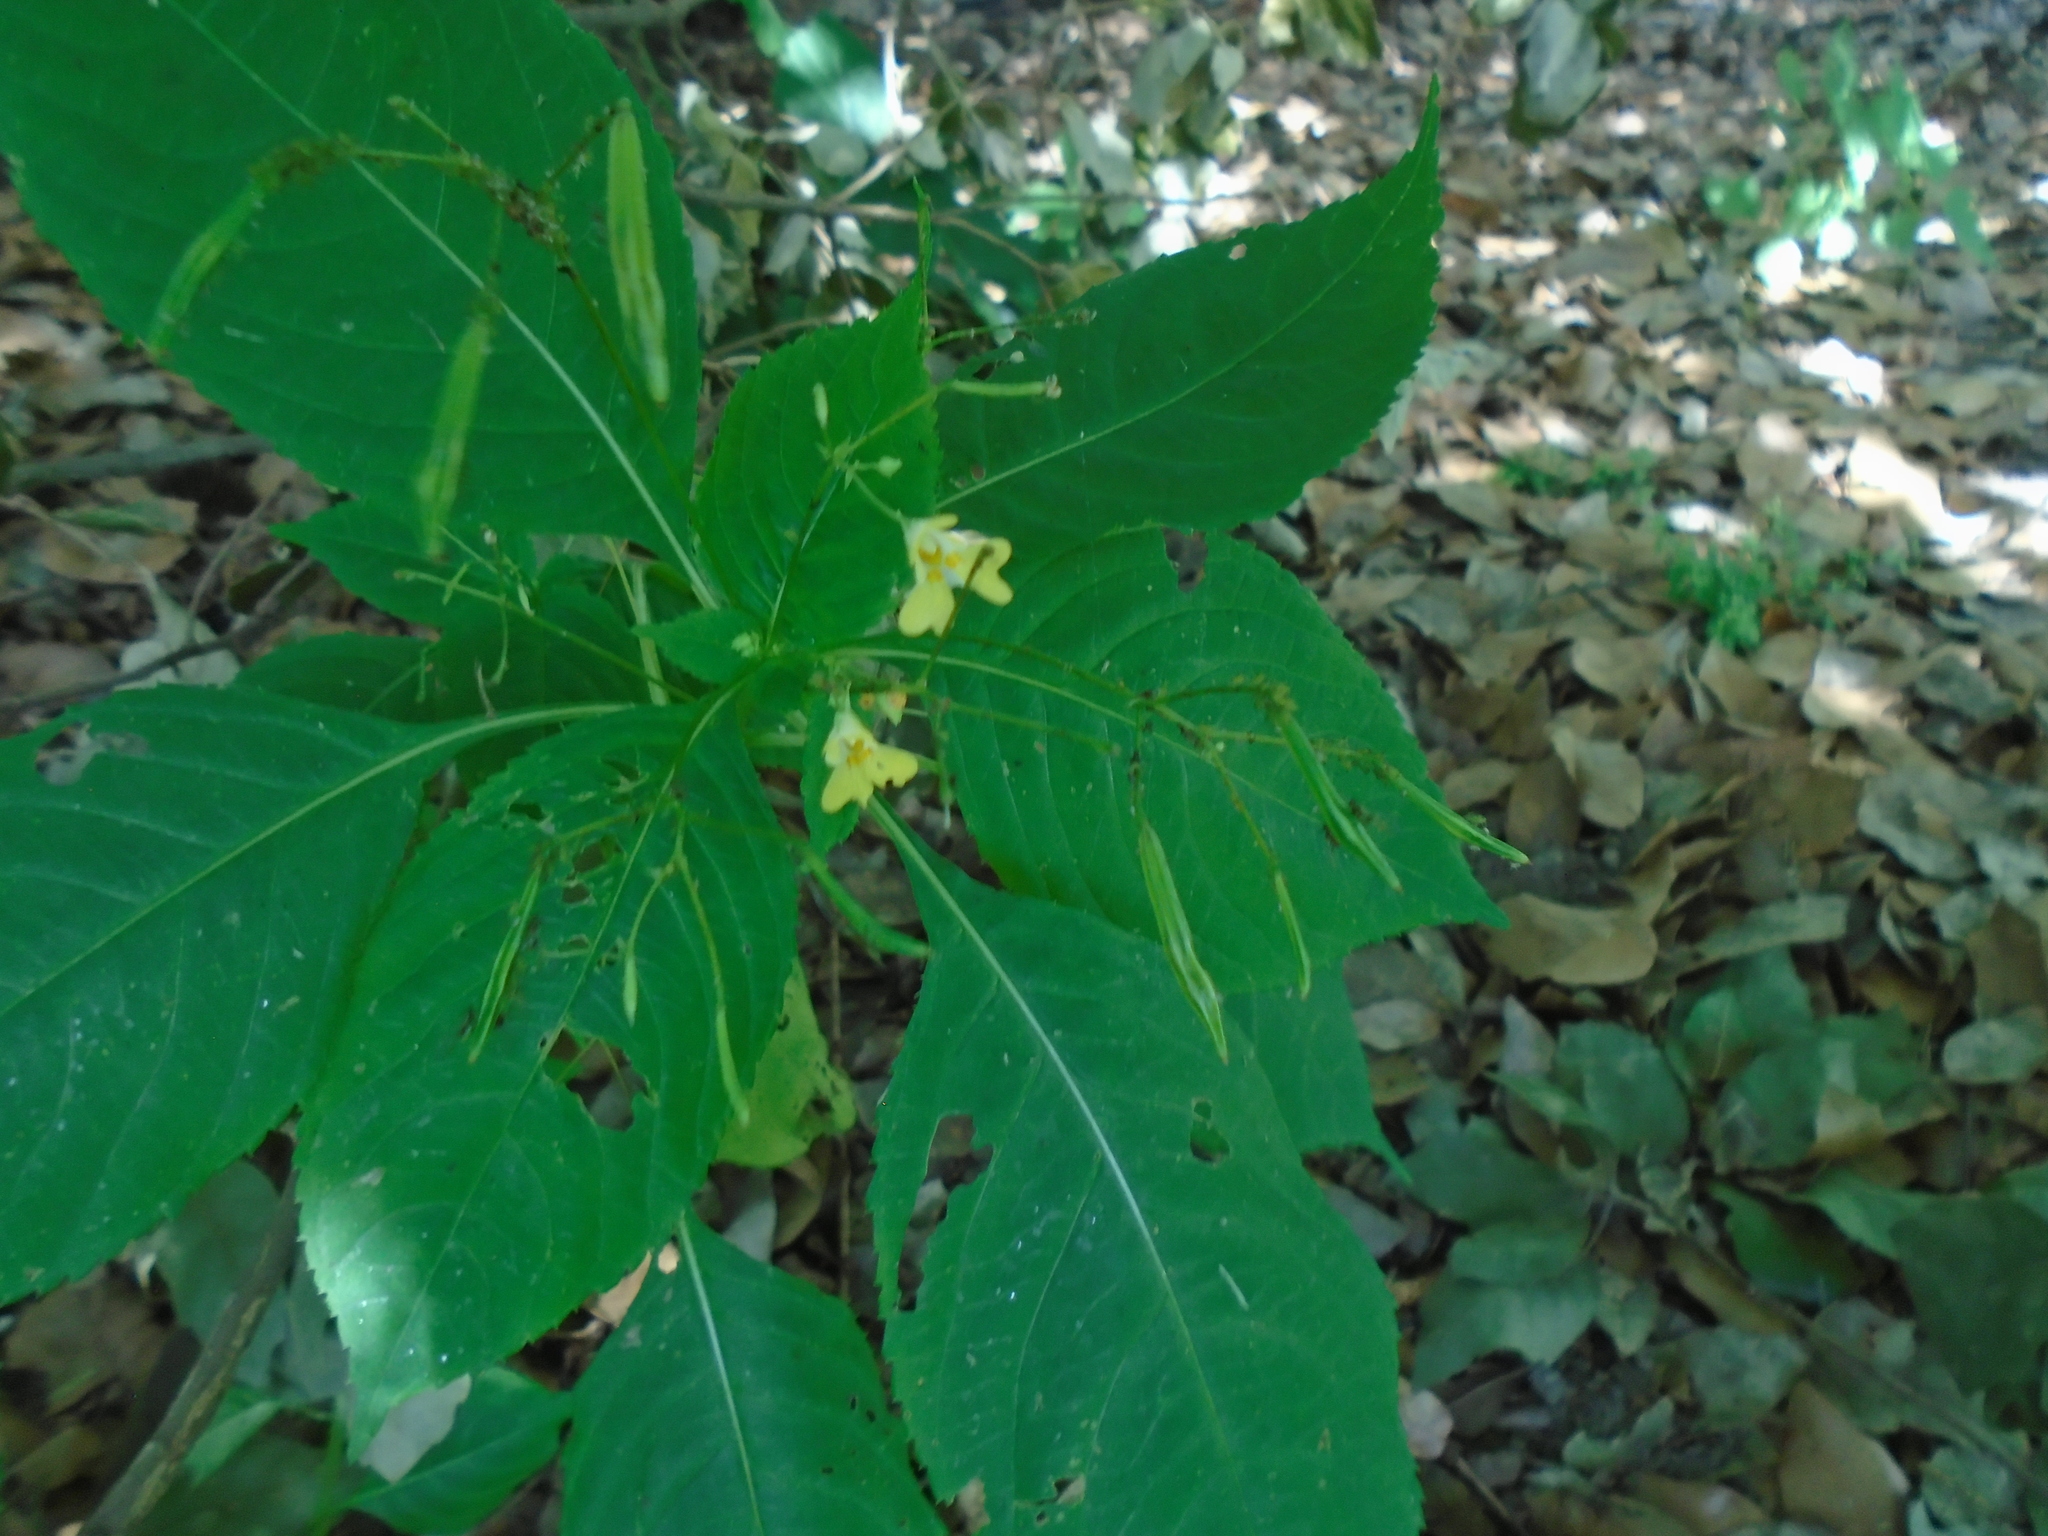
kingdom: Plantae
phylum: Tracheophyta
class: Magnoliopsida
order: Ericales
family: Balsaminaceae
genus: Impatiens
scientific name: Impatiens parviflora
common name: Small balsam
